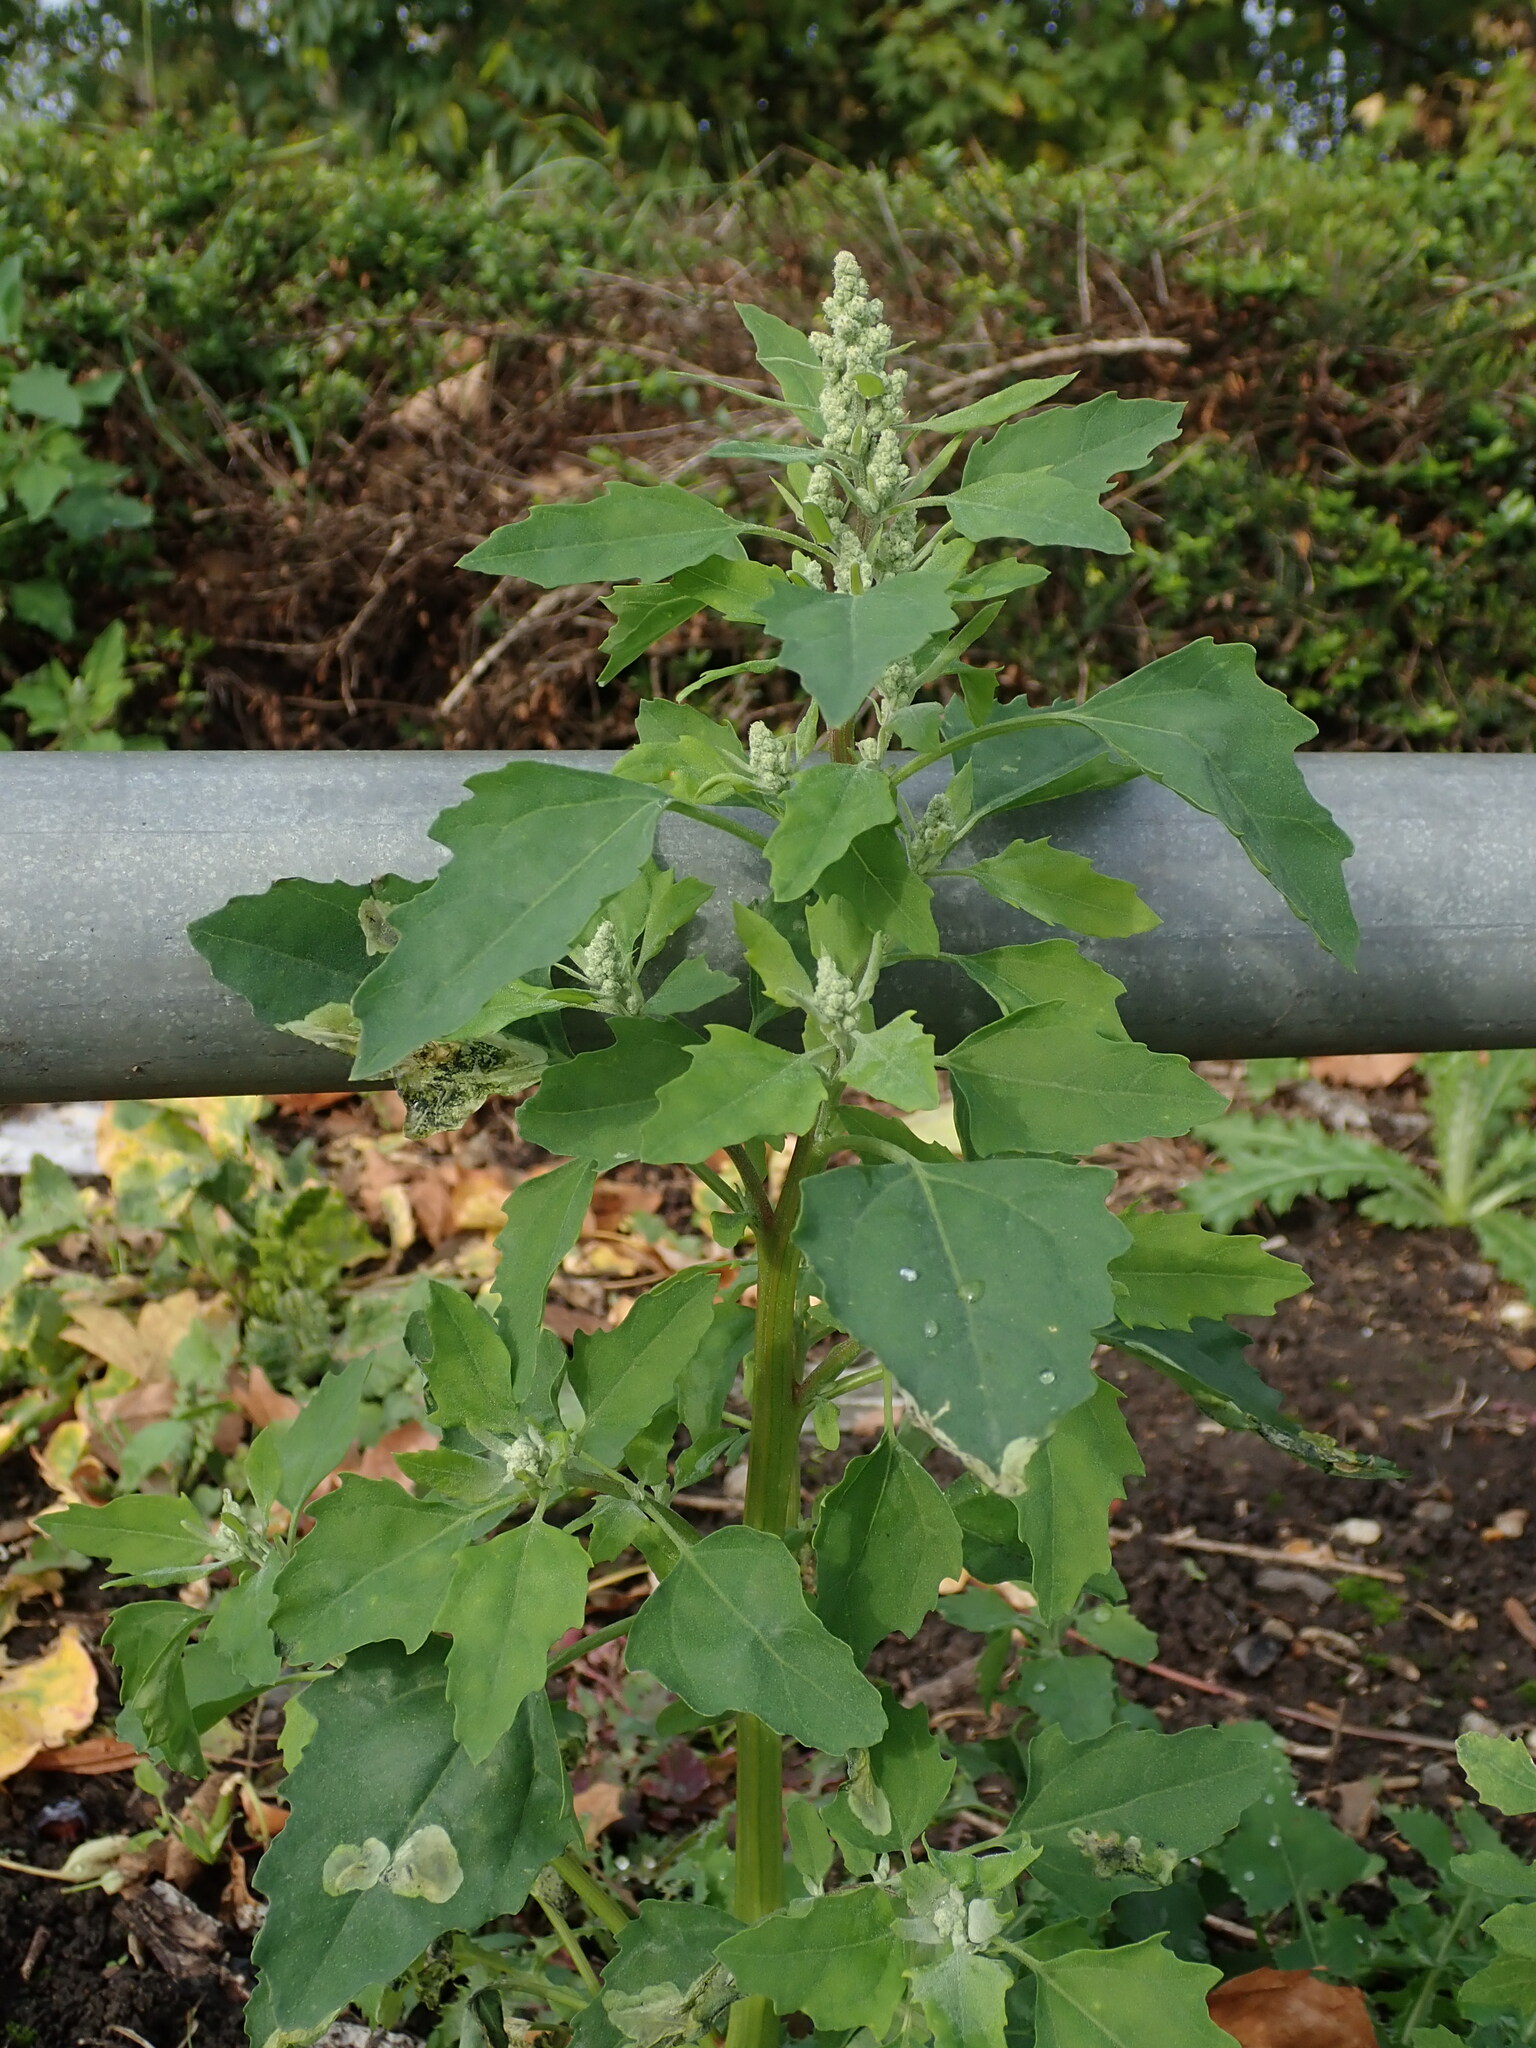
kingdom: Plantae
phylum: Tracheophyta
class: Magnoliopsida
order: Caryophyllales
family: Amaranthaceae
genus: Chenopodium
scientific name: Chenopodium album
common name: Fat-hen
